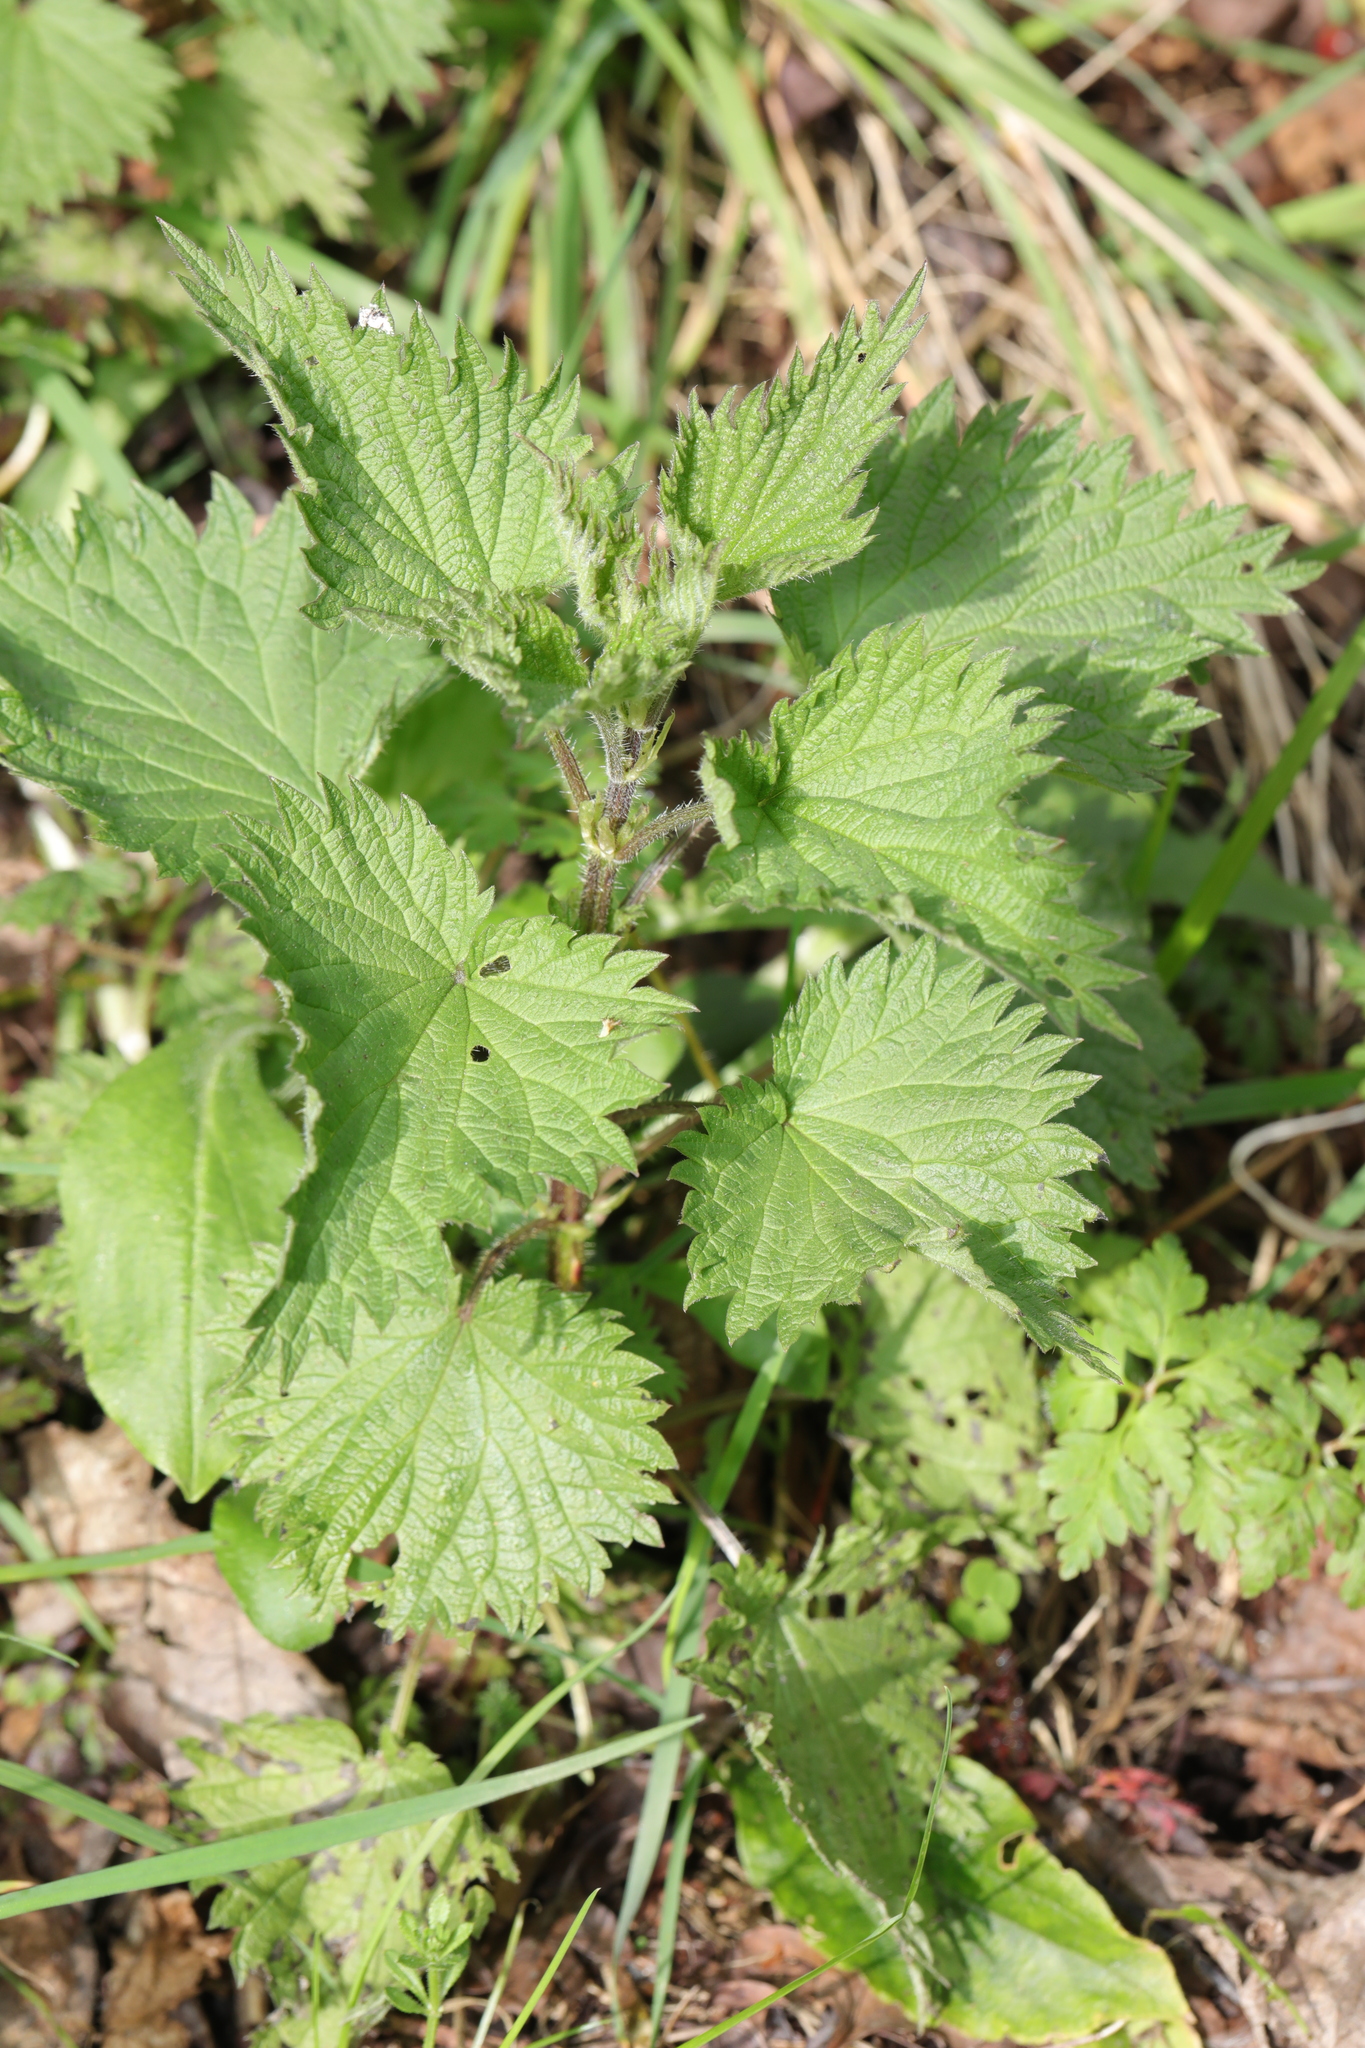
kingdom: Plantae
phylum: Tracheophyta
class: Magnoliopsida
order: Rosales
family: Urticaceae
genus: Urtica
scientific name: Urtica dioica
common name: Common nettle
